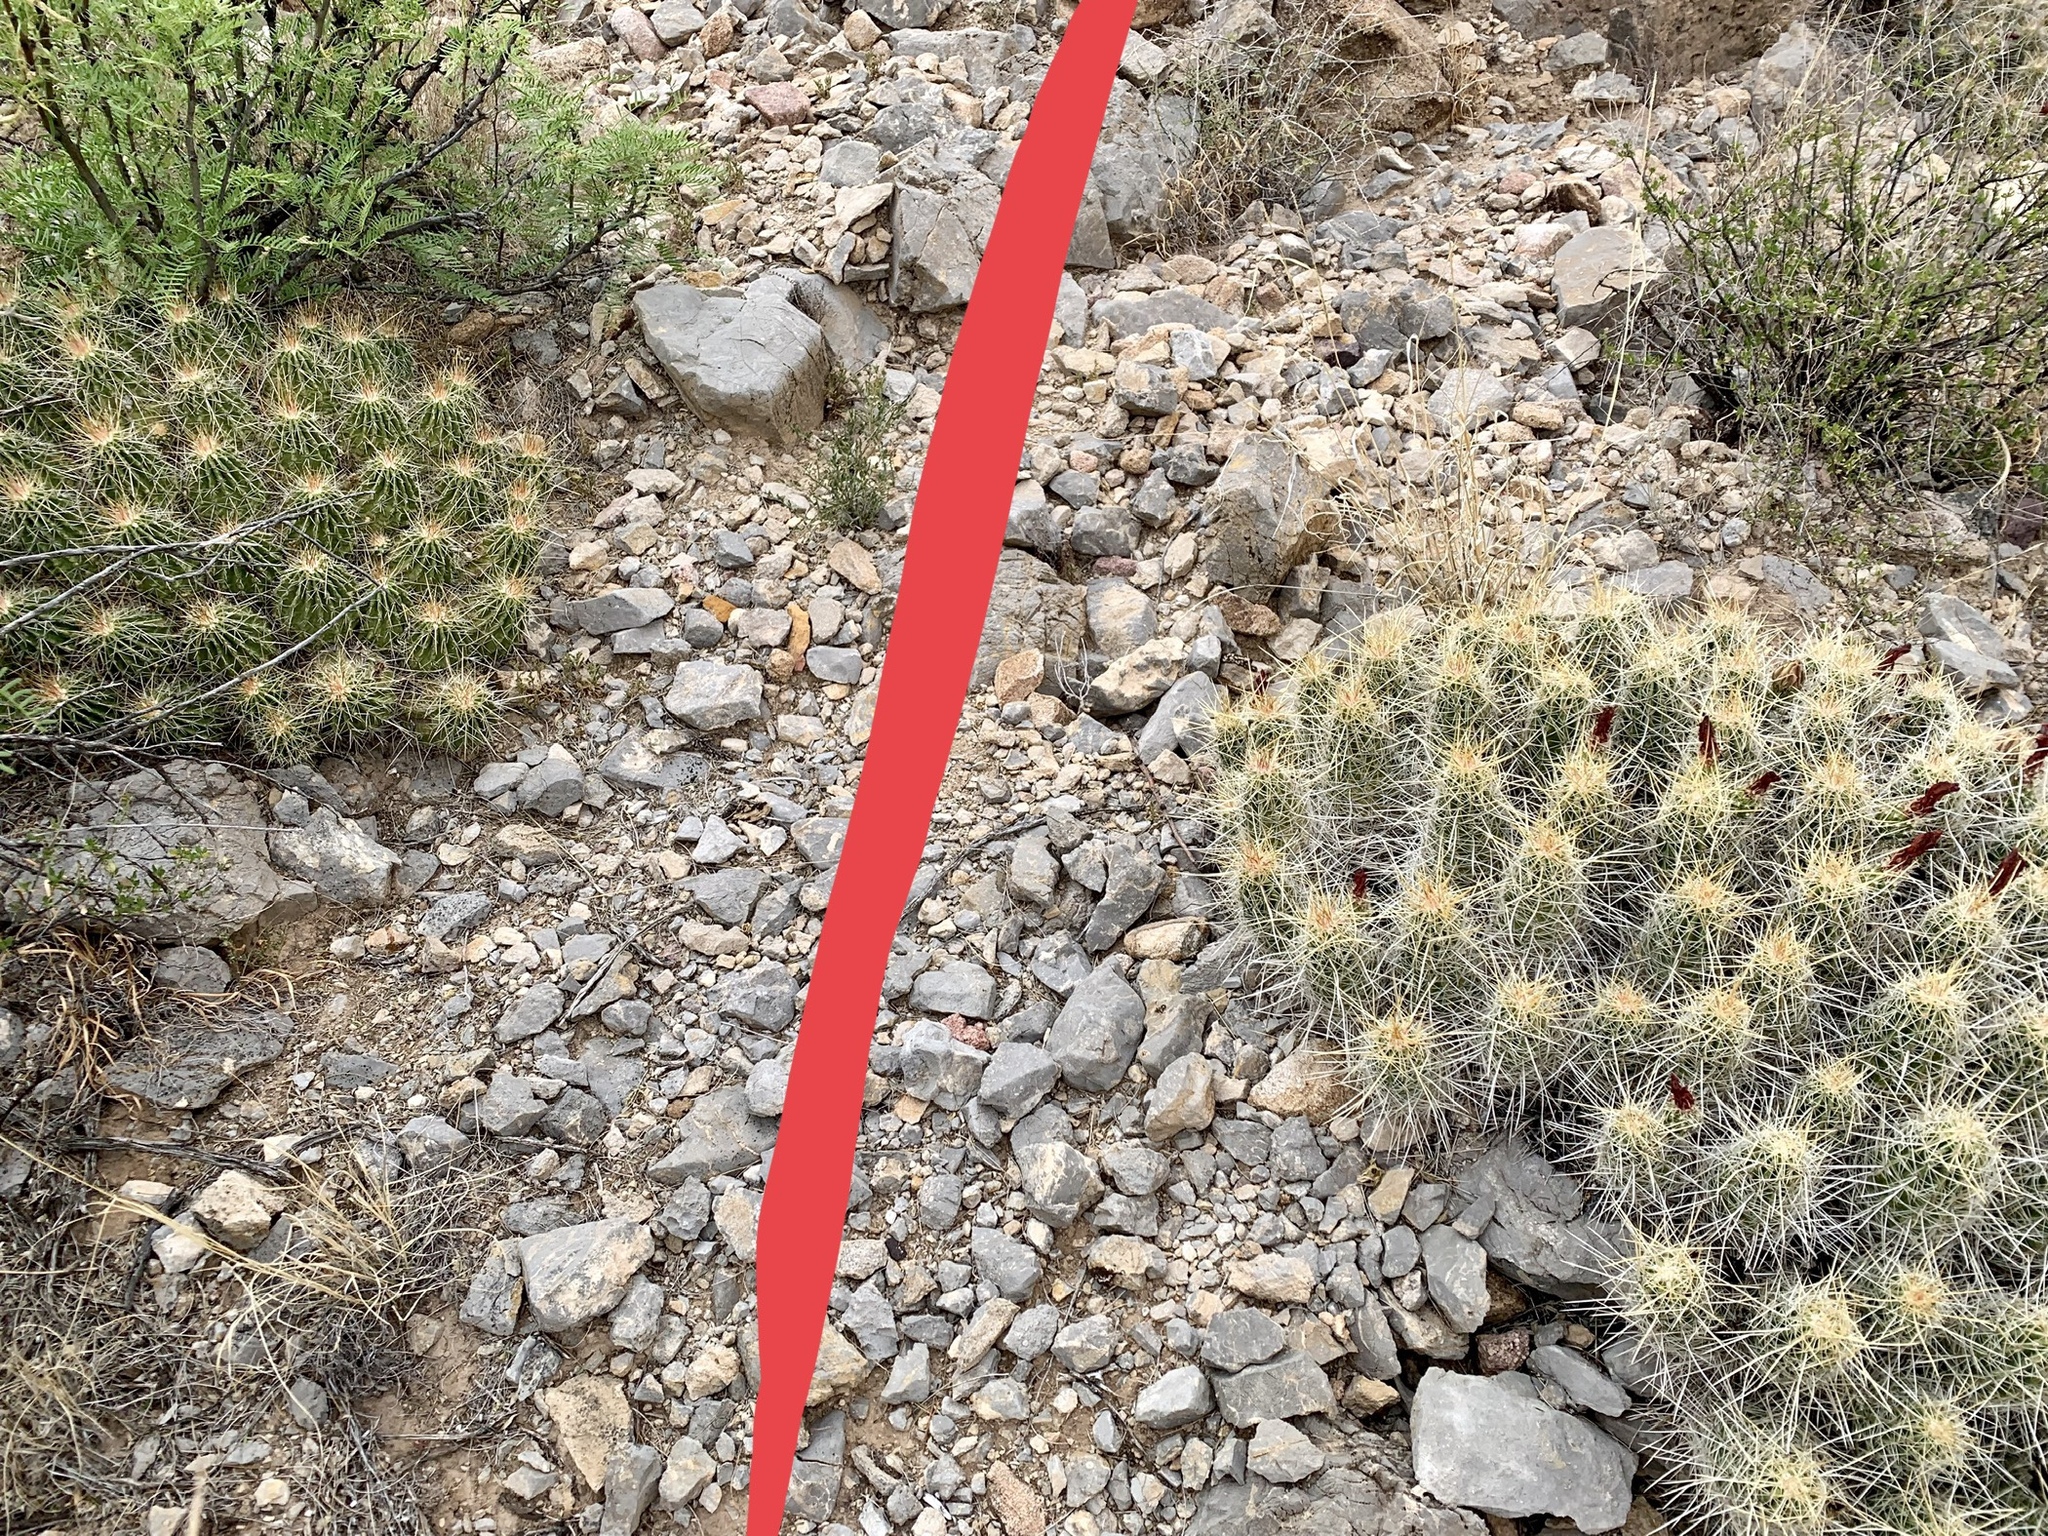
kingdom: Plantae
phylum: Tracheophyta
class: Magnoliopsida
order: Caryophyllales
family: Cactaceae
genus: Echinocereus
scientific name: Echinocereus stramineus
